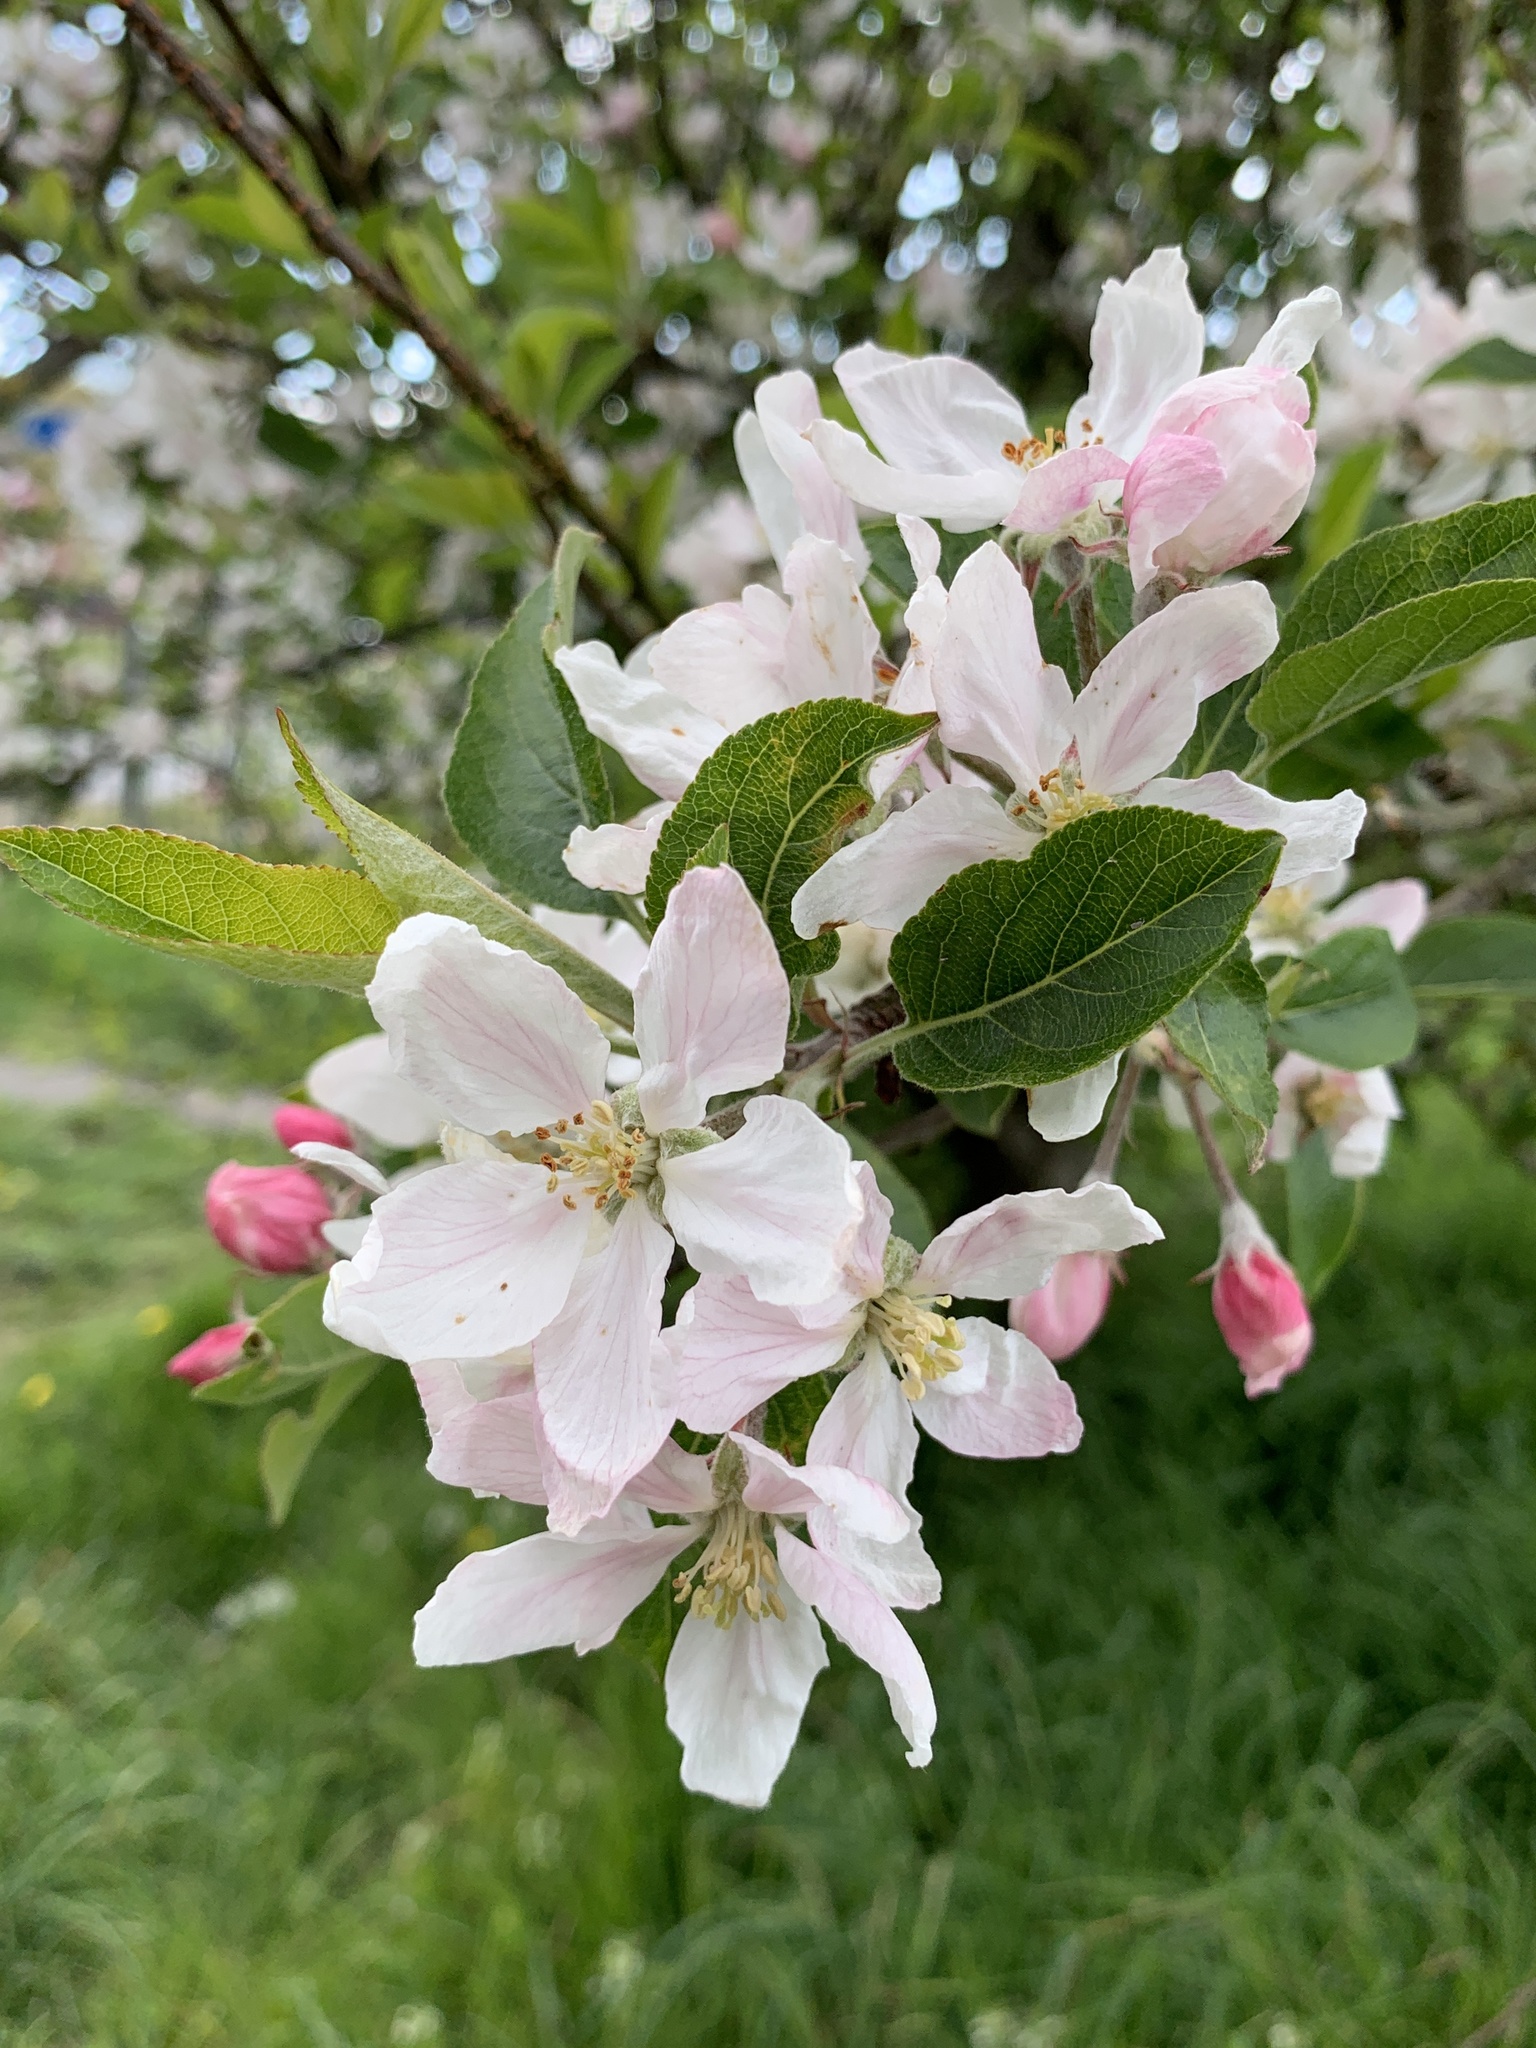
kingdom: Plantae
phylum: Tracheophyta
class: Magnoliopsida
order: Rosales
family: Rosaceae
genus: Malus
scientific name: Malus domestica
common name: Apple
